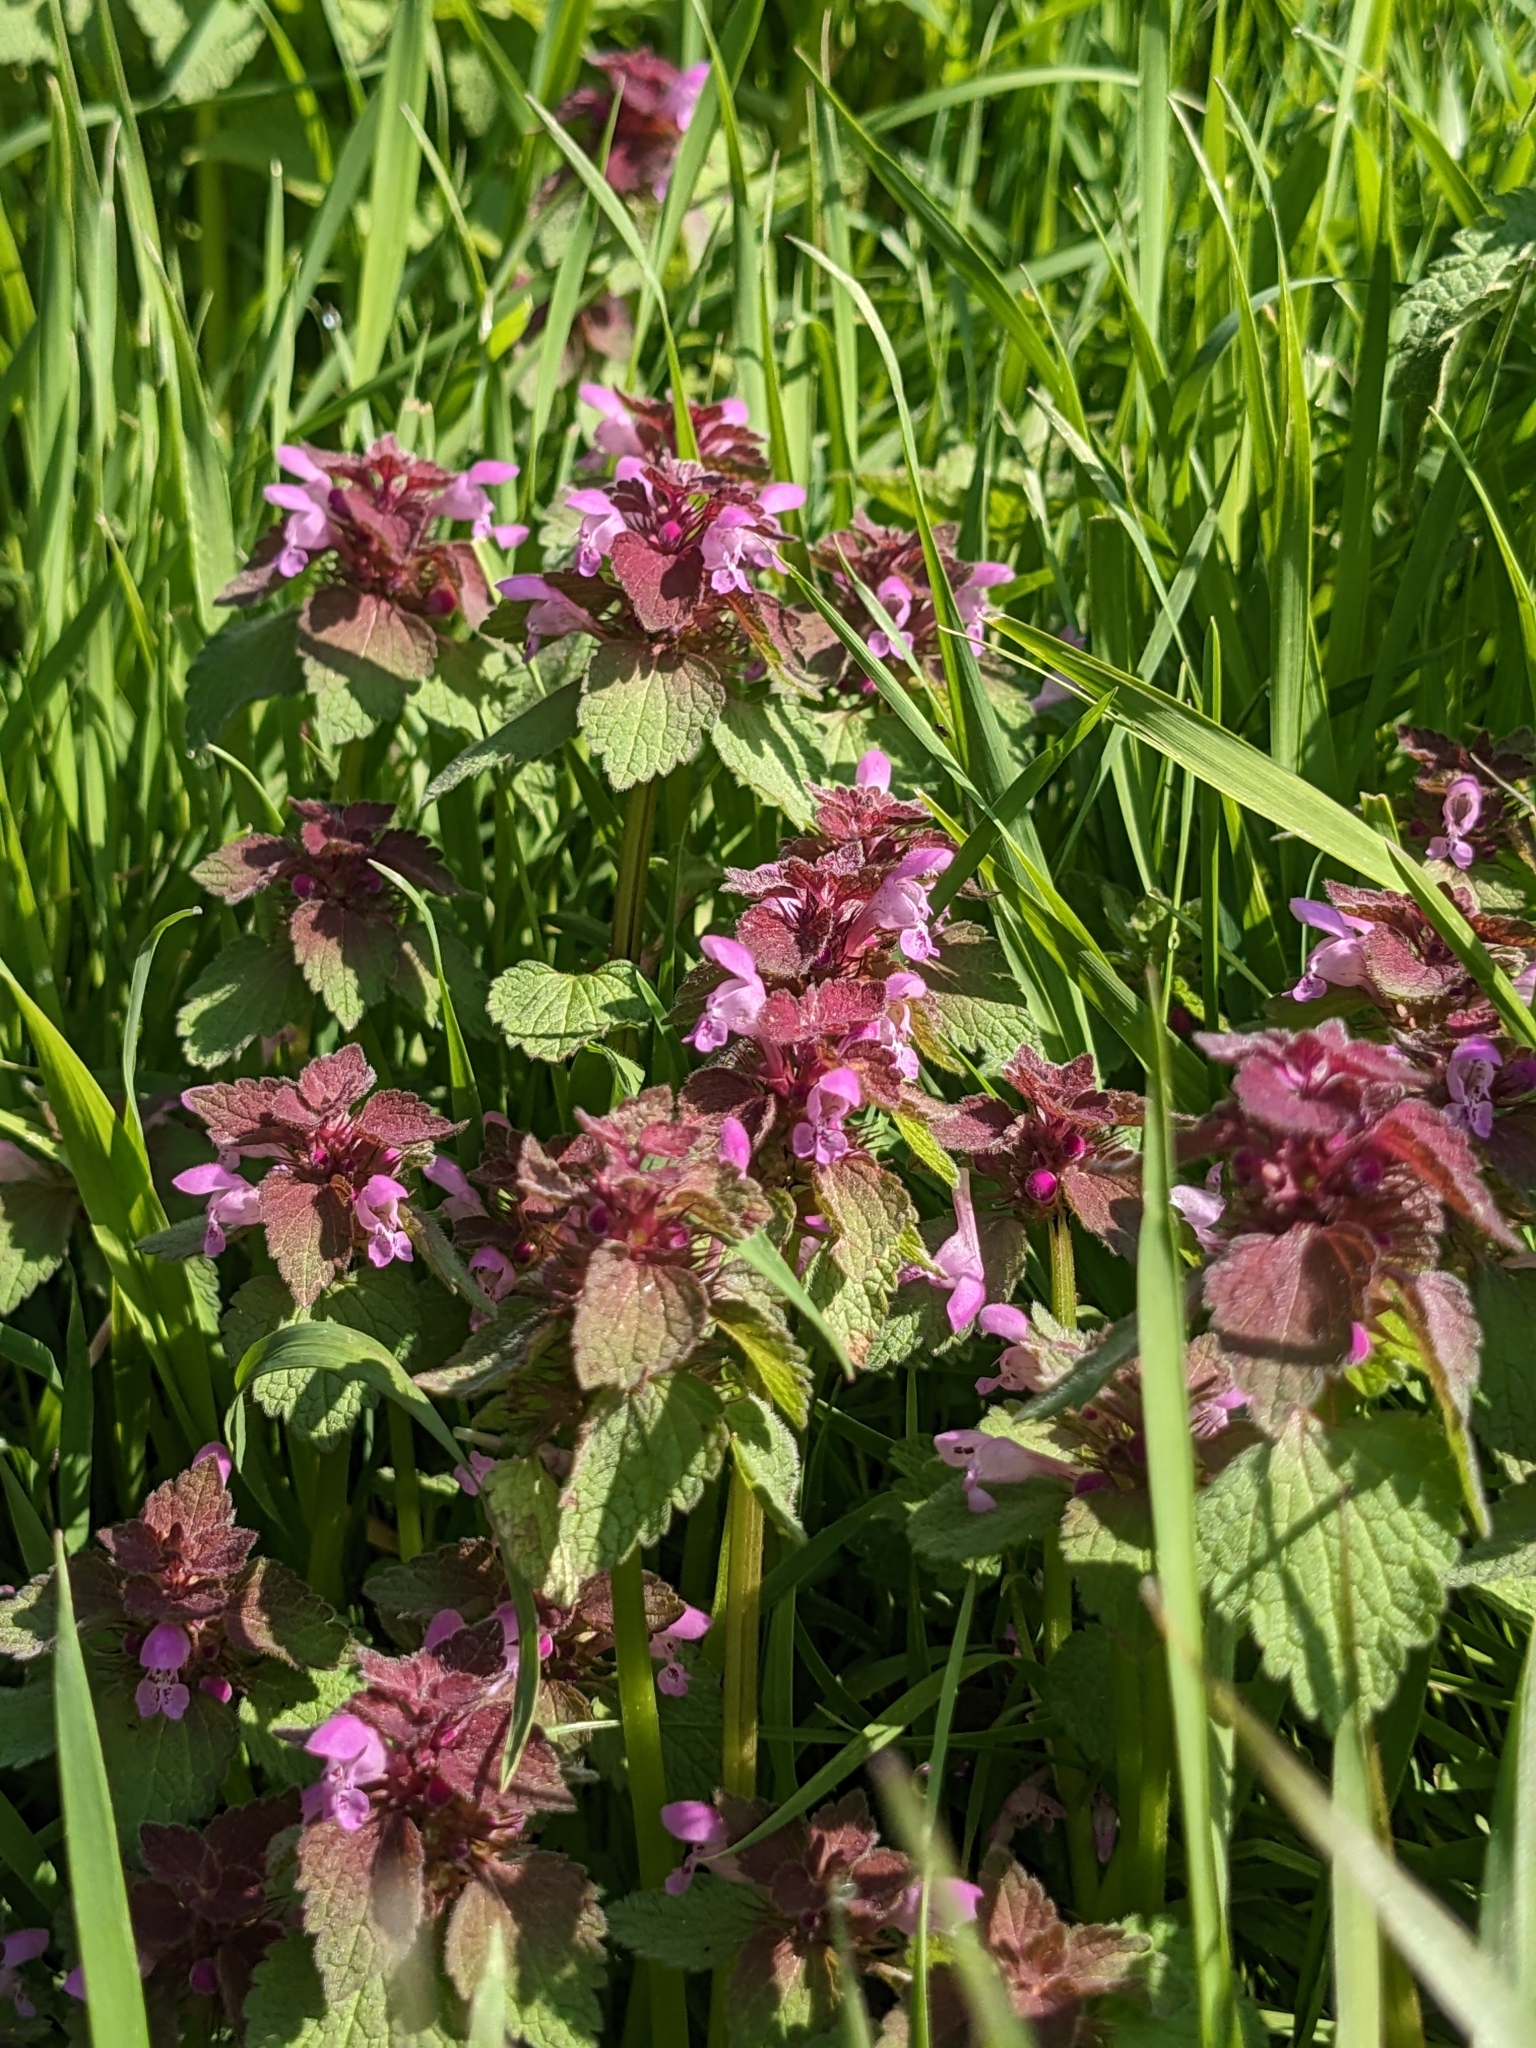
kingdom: Plantae
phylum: Tracheophyta
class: Magnoliopsida
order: Lamiales
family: Lamiaceae
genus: Lamium
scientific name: Lamium purpureum
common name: Red dead-nettle
